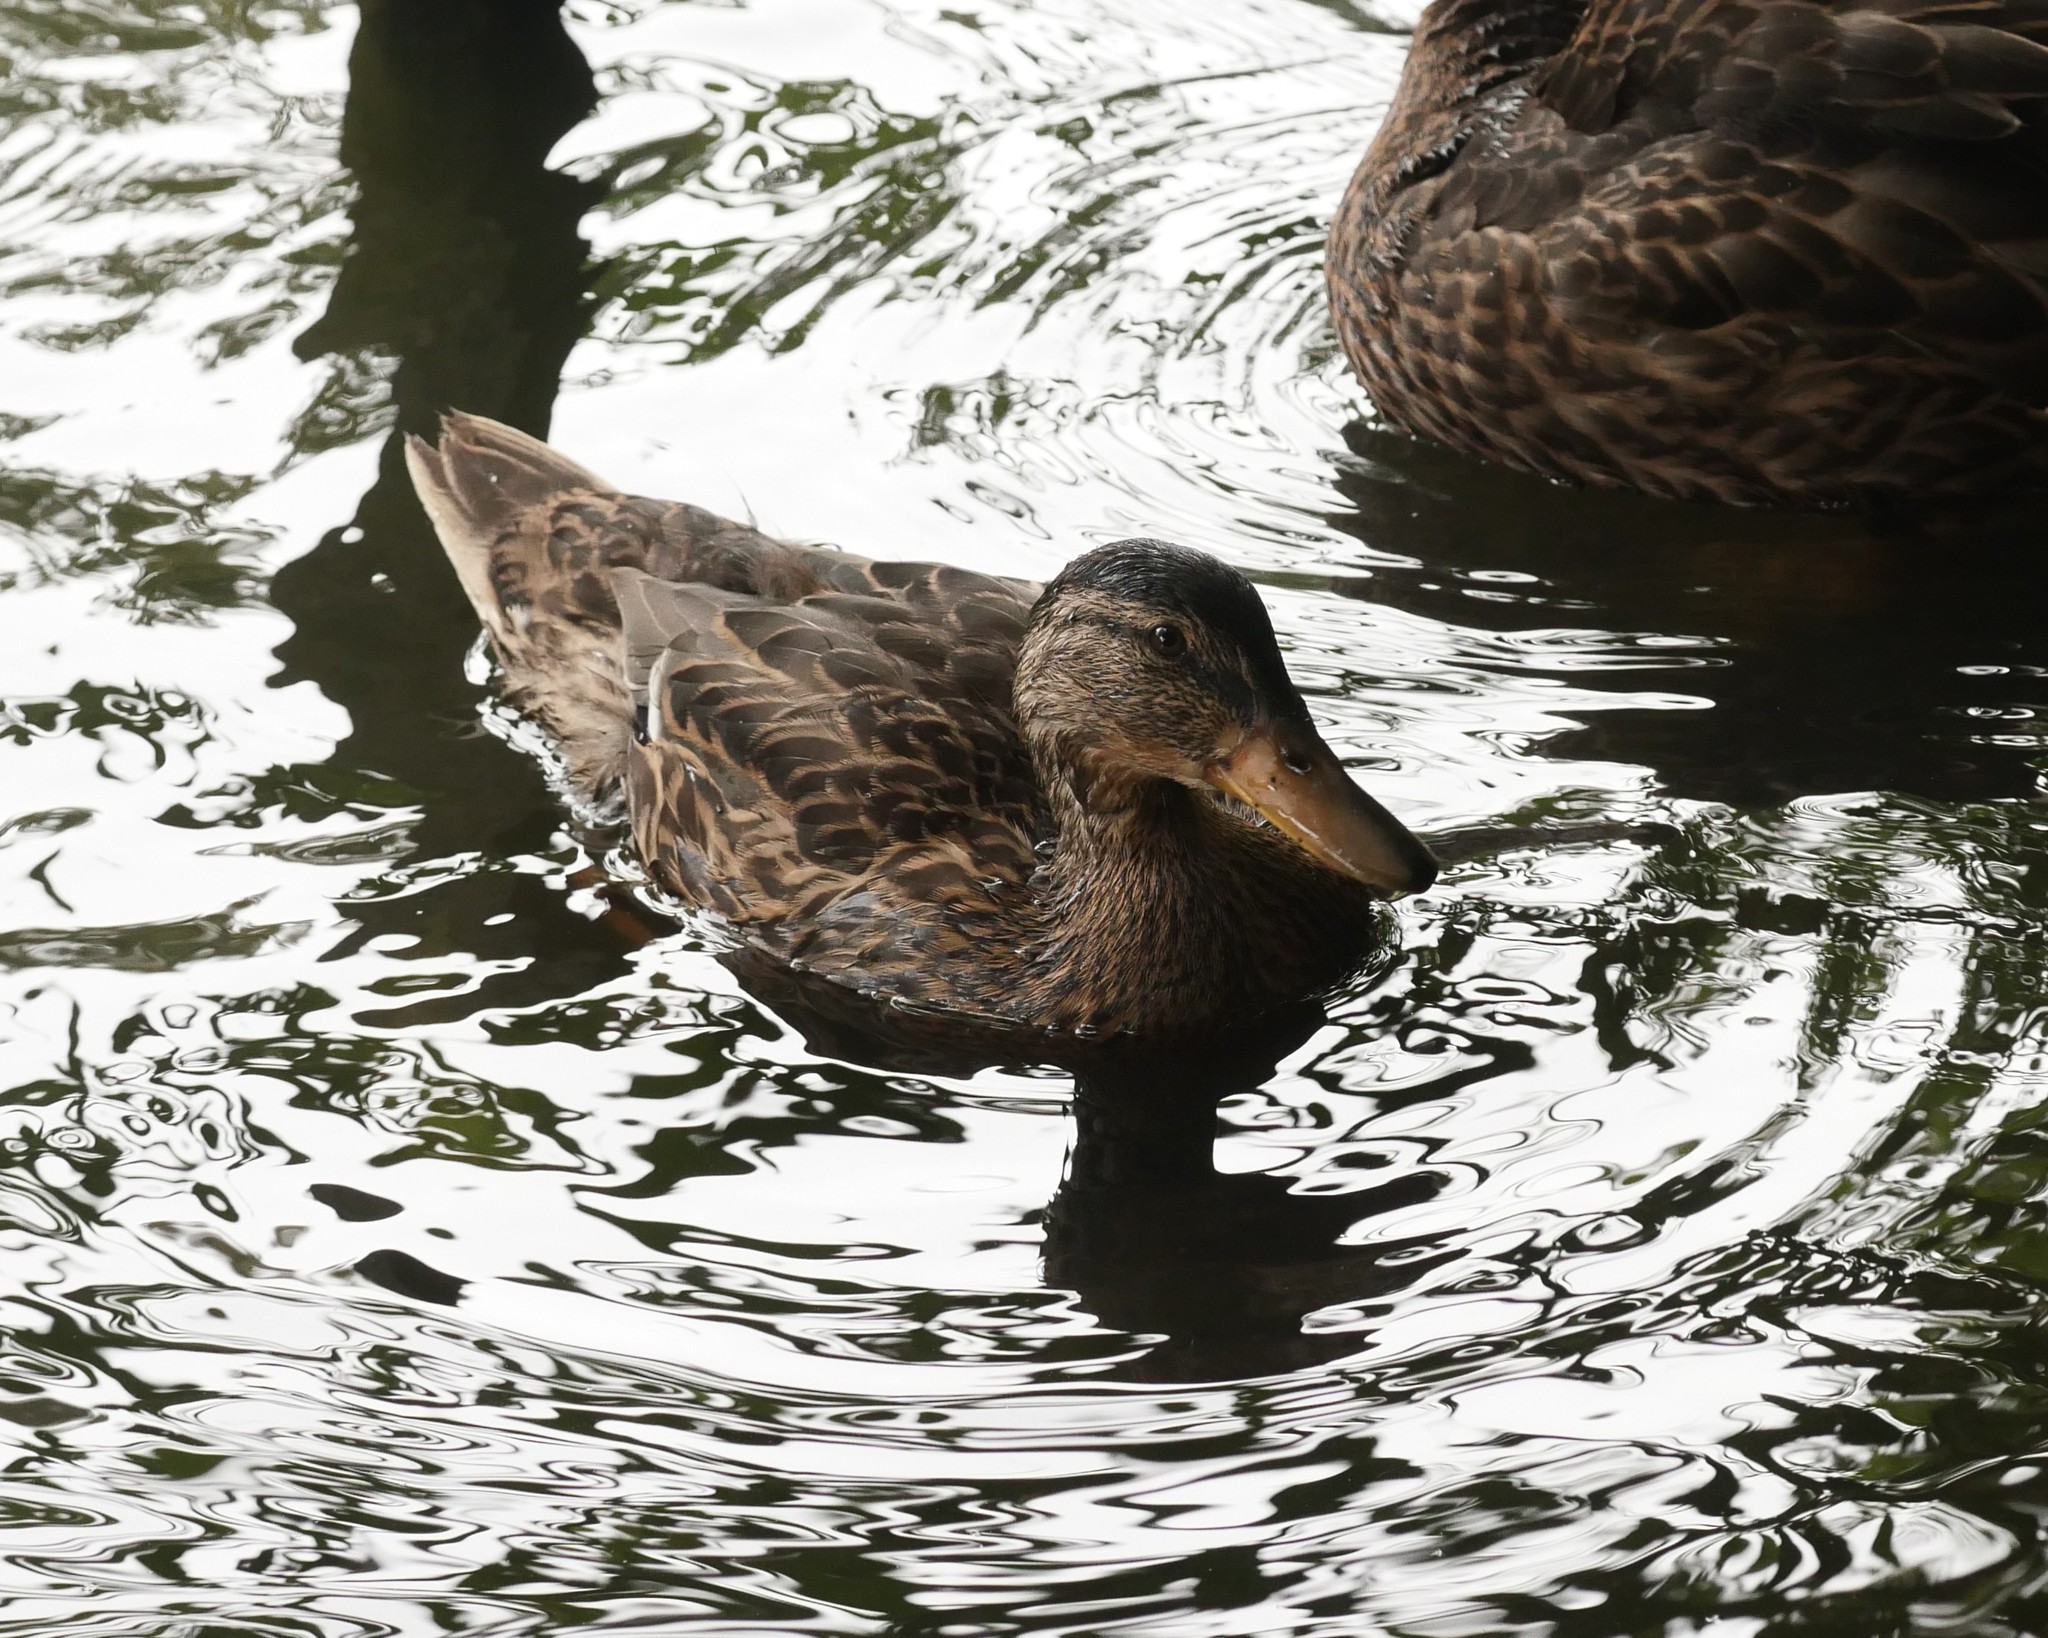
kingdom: Animalia
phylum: Chordata
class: Aves
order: Anseriformes
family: Anatidae
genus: Anas
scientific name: Anas platyrhynchos
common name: Mallard
